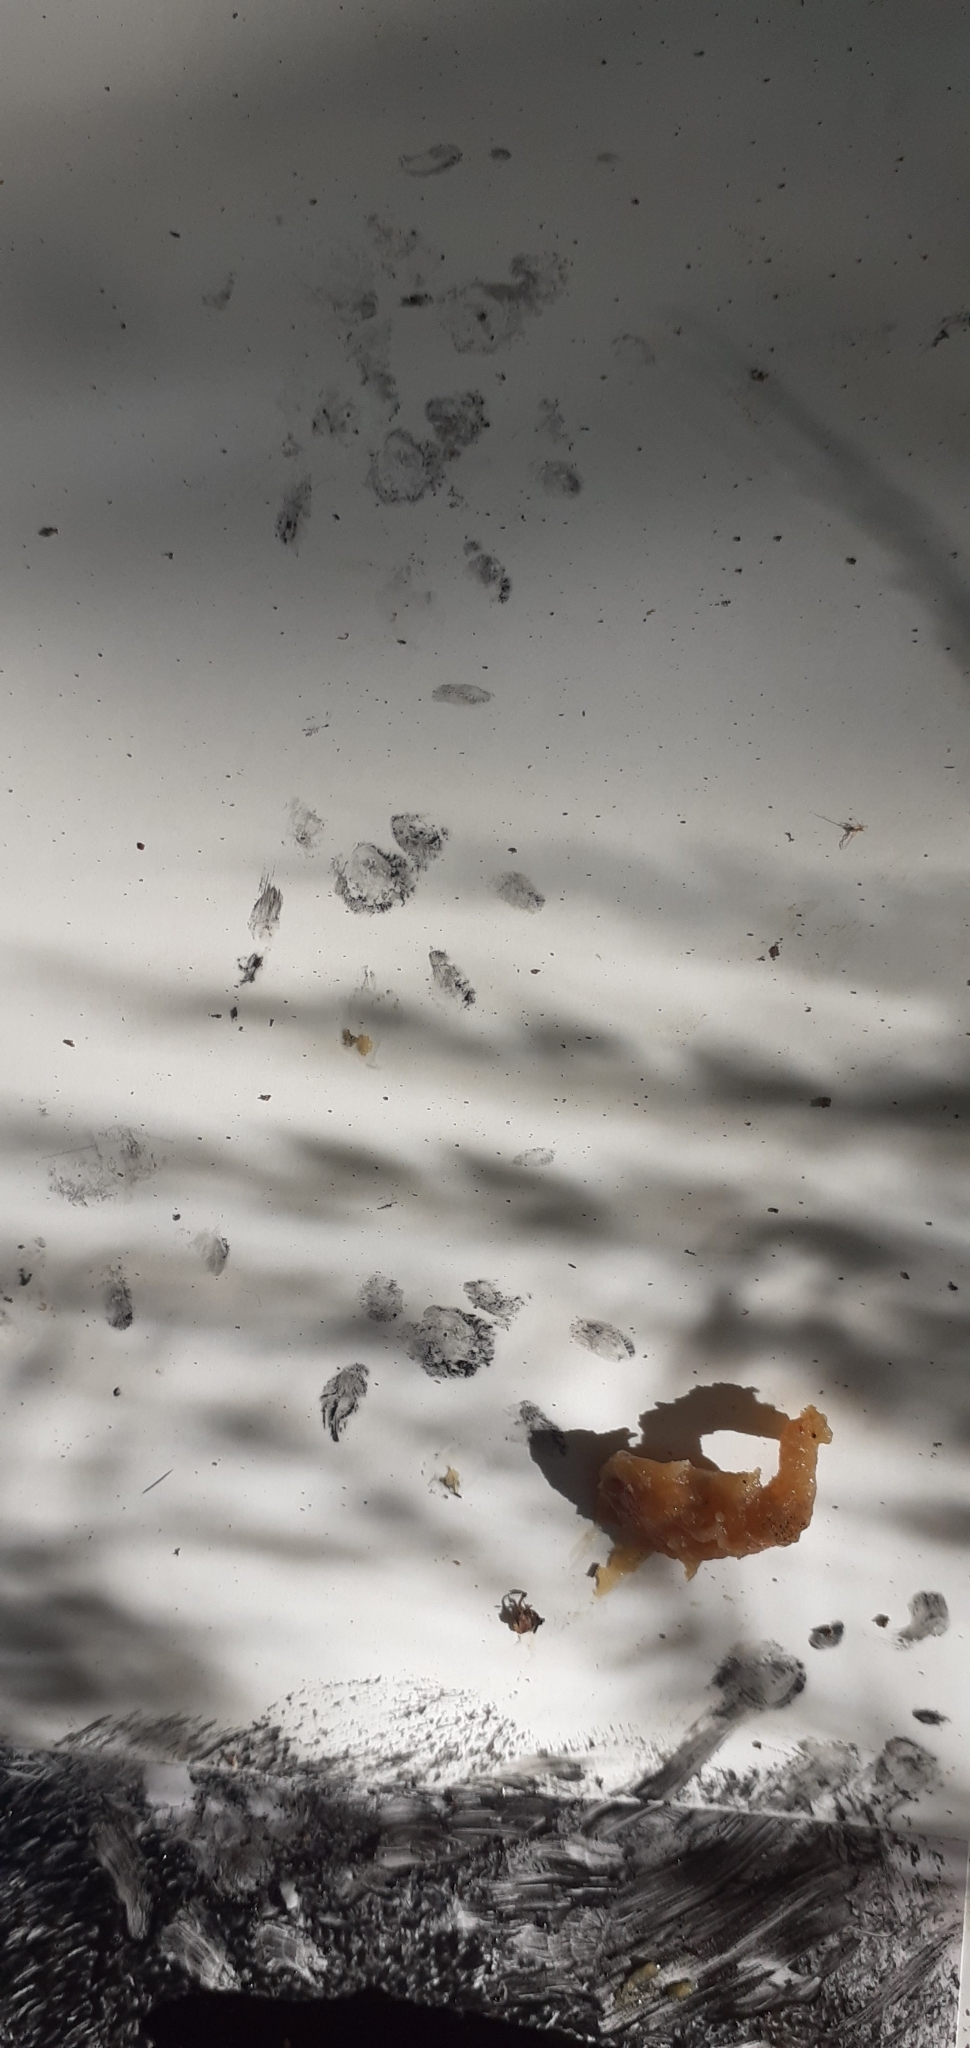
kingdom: Animalia
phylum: Chordata
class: Mammalia
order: Carnivora
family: Mustelidae
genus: Mustela
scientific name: Mustela erminea
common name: Stoat
